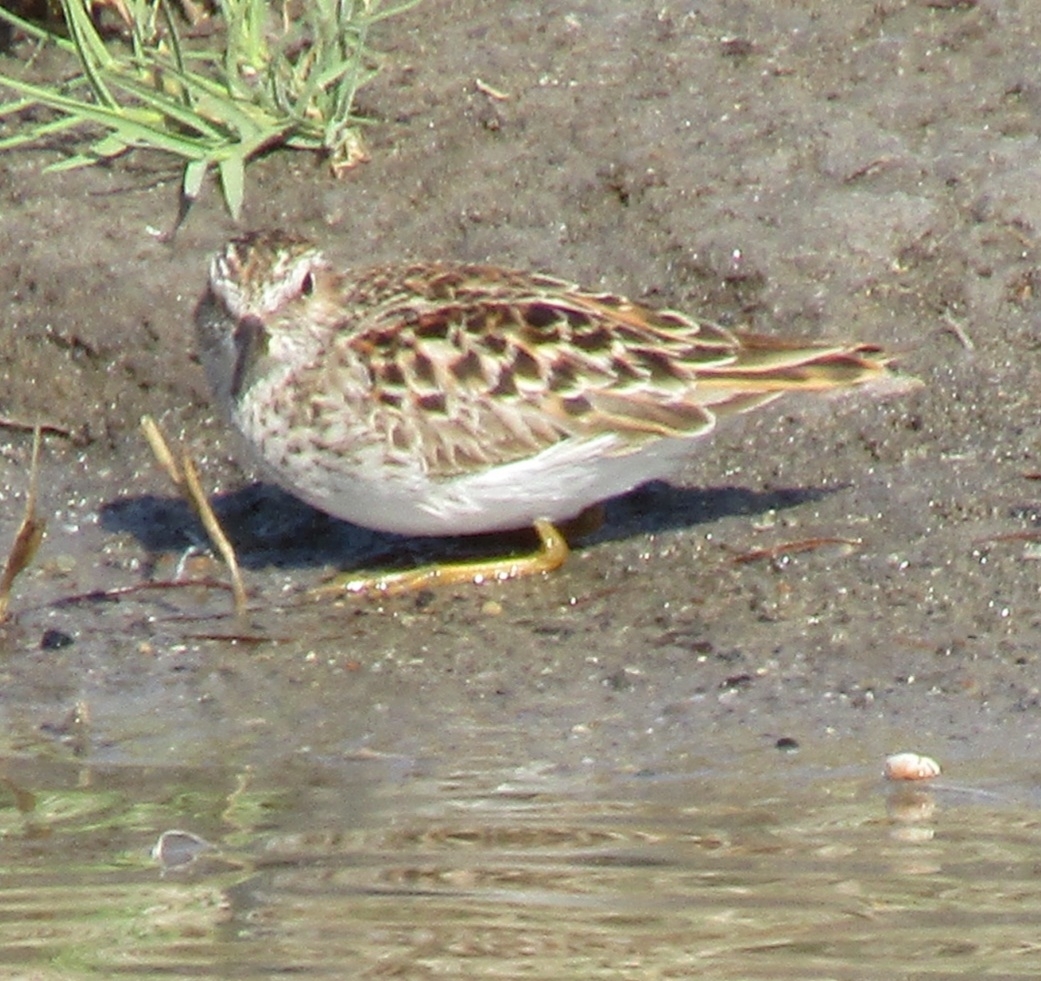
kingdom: Animalia
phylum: Chordata
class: Aves
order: Charadriiformes
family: Scolopacidae
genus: Calidris
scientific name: Calidris minutilla
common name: Least sandpiper
